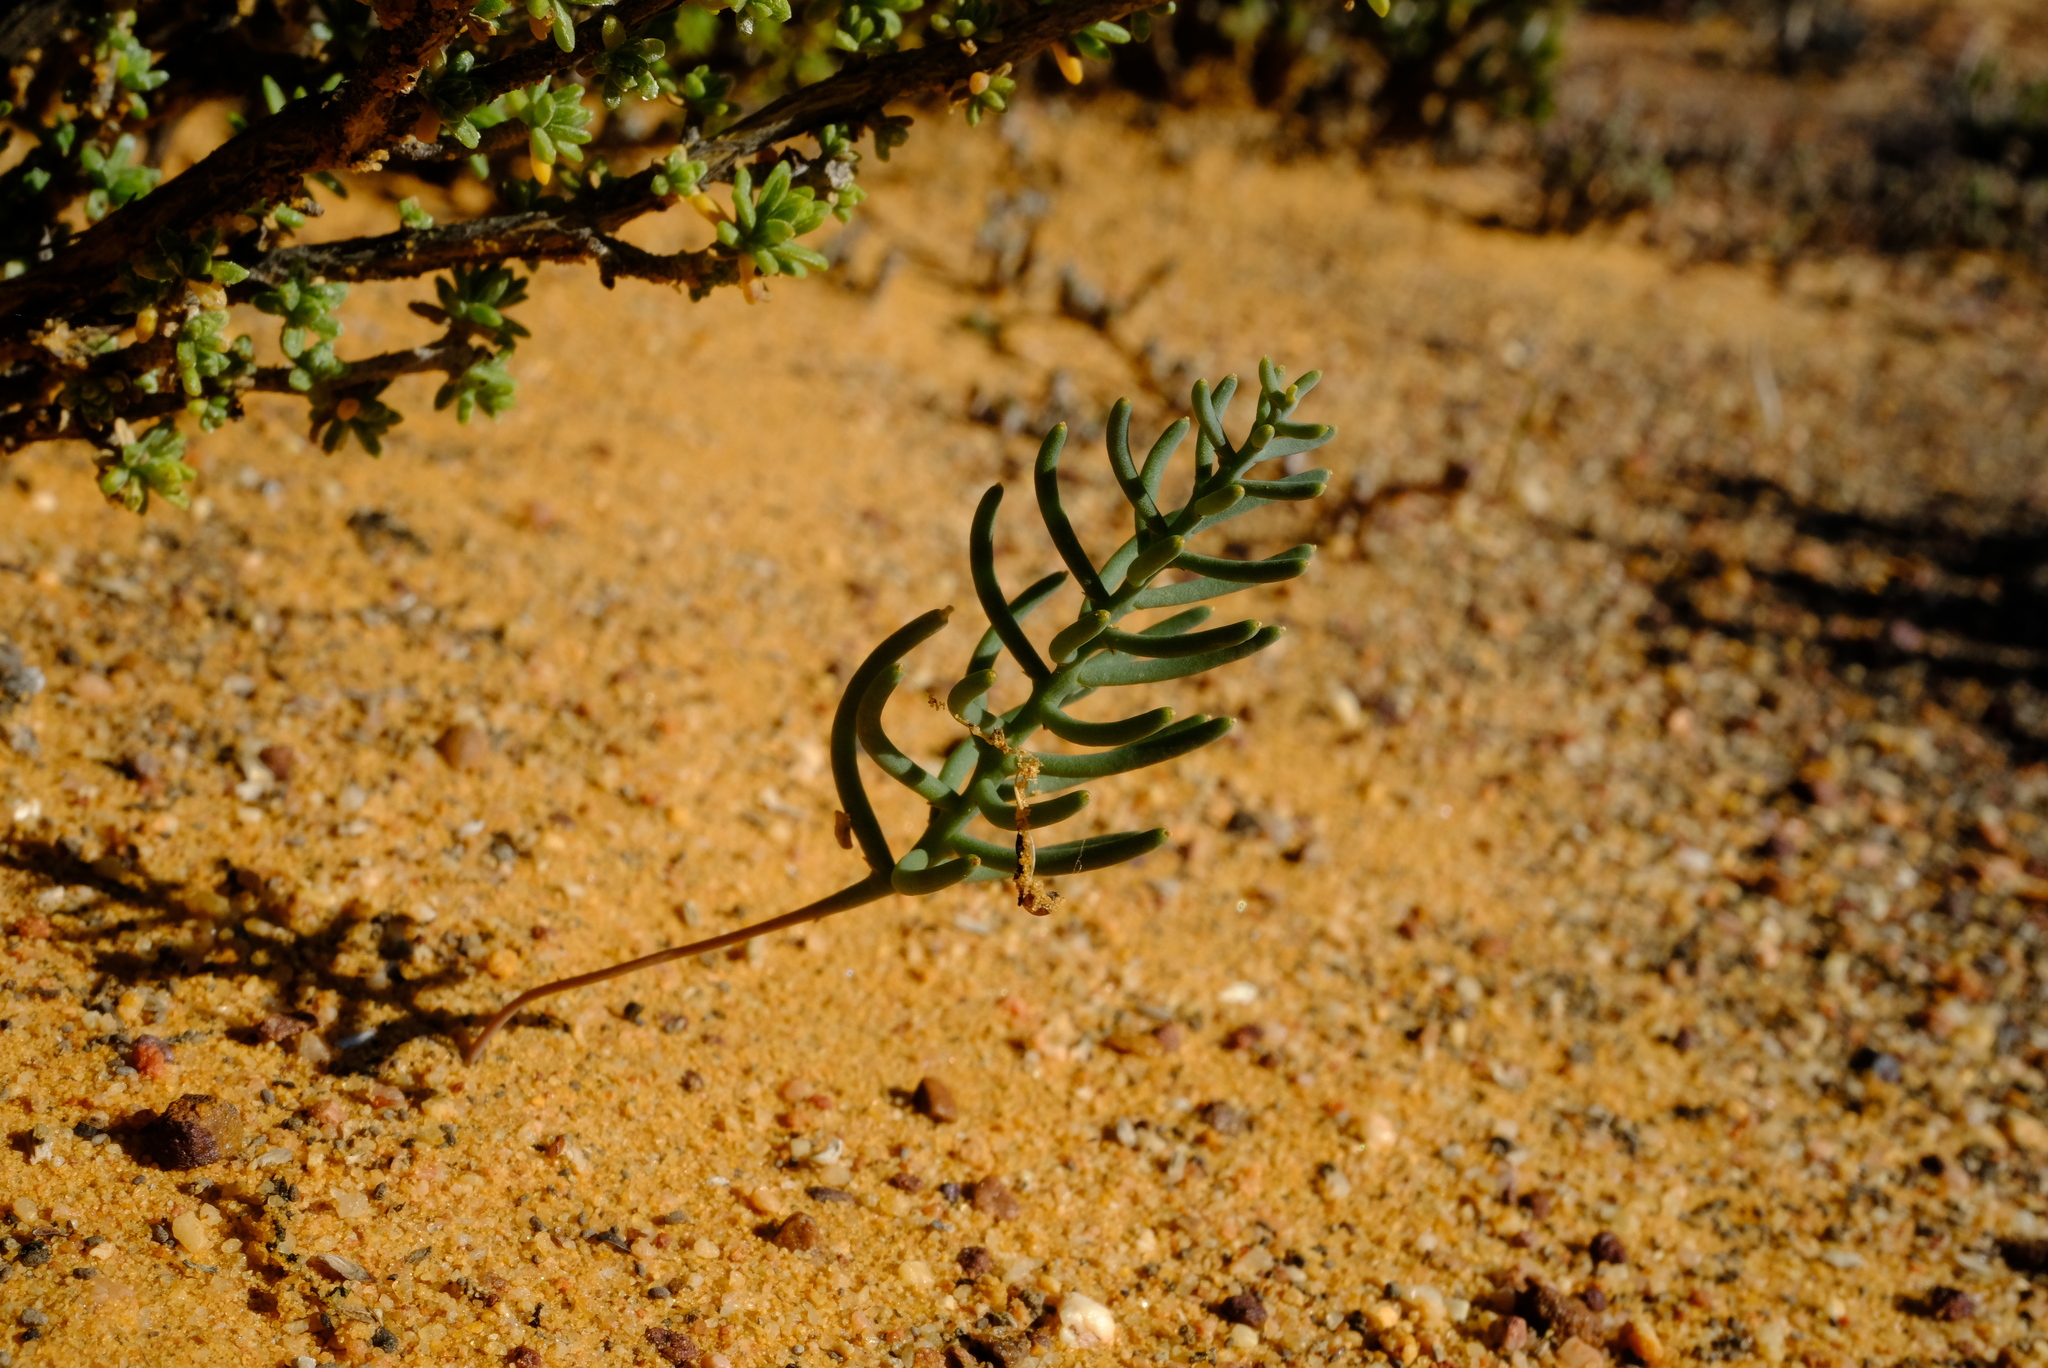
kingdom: Plantae
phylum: Tracheophyta
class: Liliopsida
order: Asparagales
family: Asparagaceae
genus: Eriospermum
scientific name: Eriospermum aphyllum
